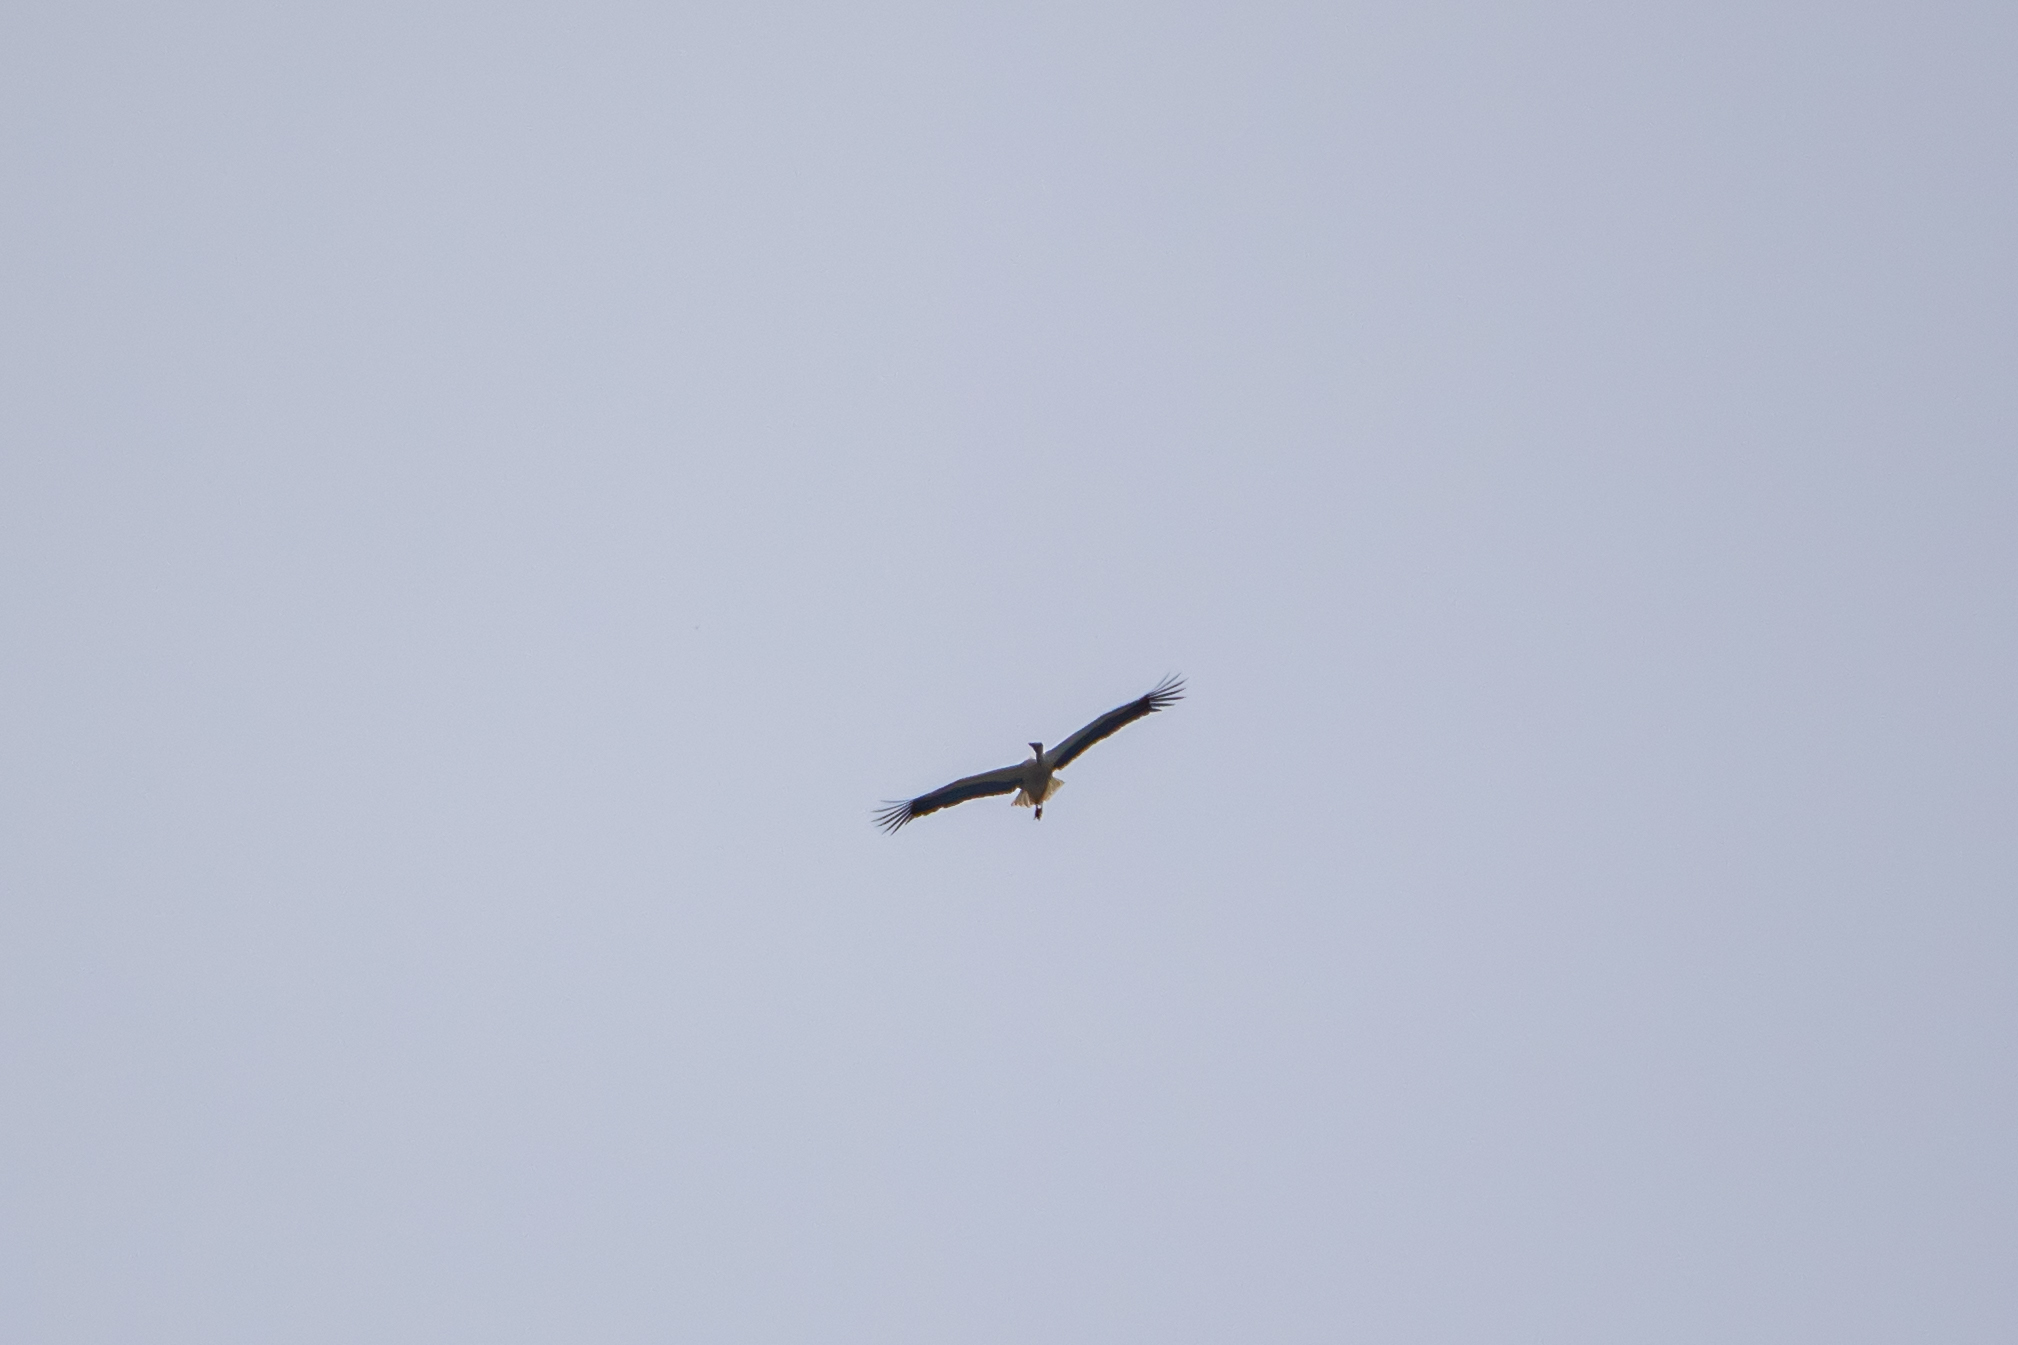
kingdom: Animalia
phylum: Chordata
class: Aves
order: Ciconiiformes
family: Ciconiidae
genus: Ciconia
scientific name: Ciconia ciconia
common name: White stork
